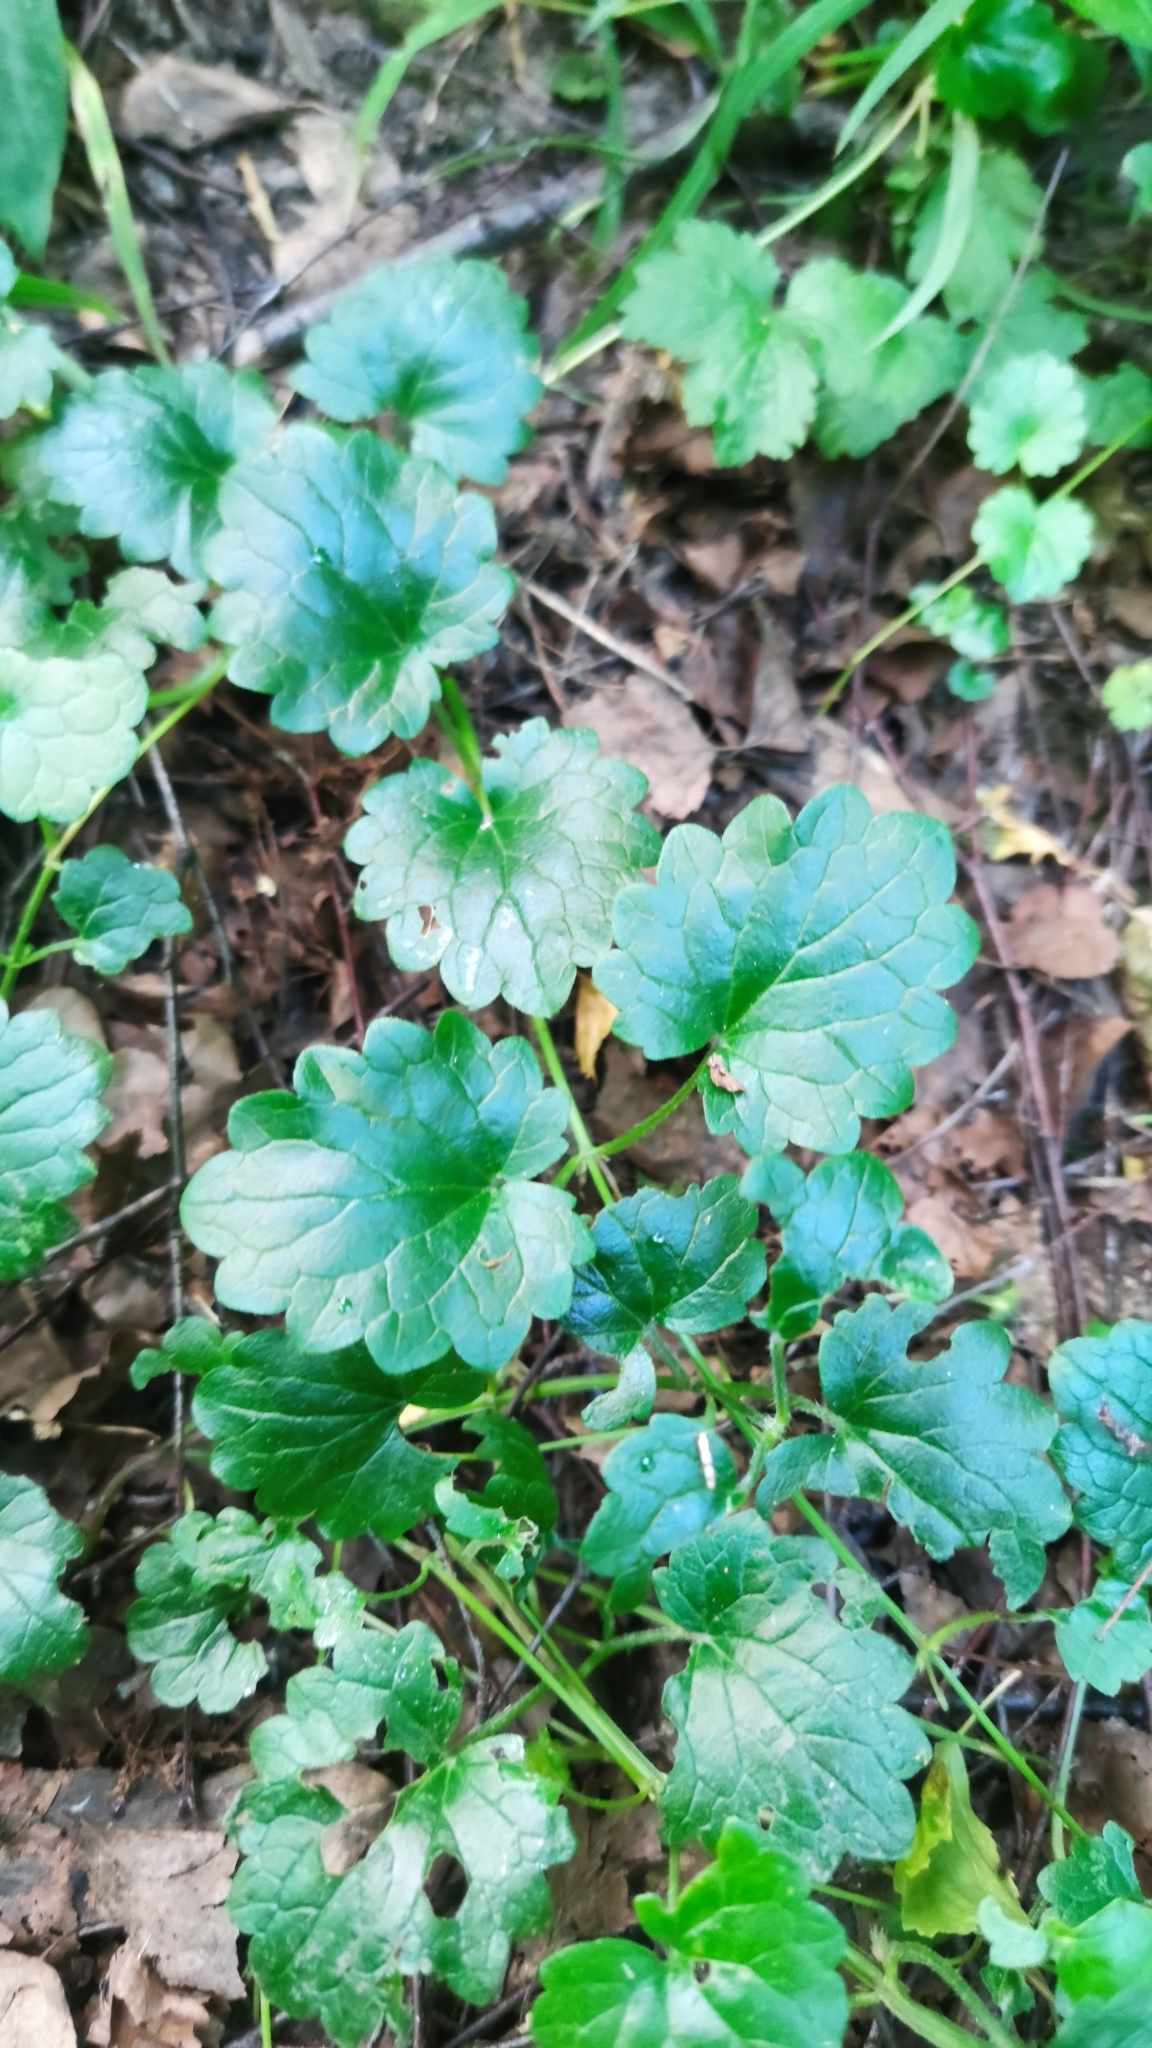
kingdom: Plantae
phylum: Tracheophyta
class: Magnoliopsida
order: Lamiales
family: Lamiaceae
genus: Glechoma
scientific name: Glechoma hederacea
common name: Ground ivy
